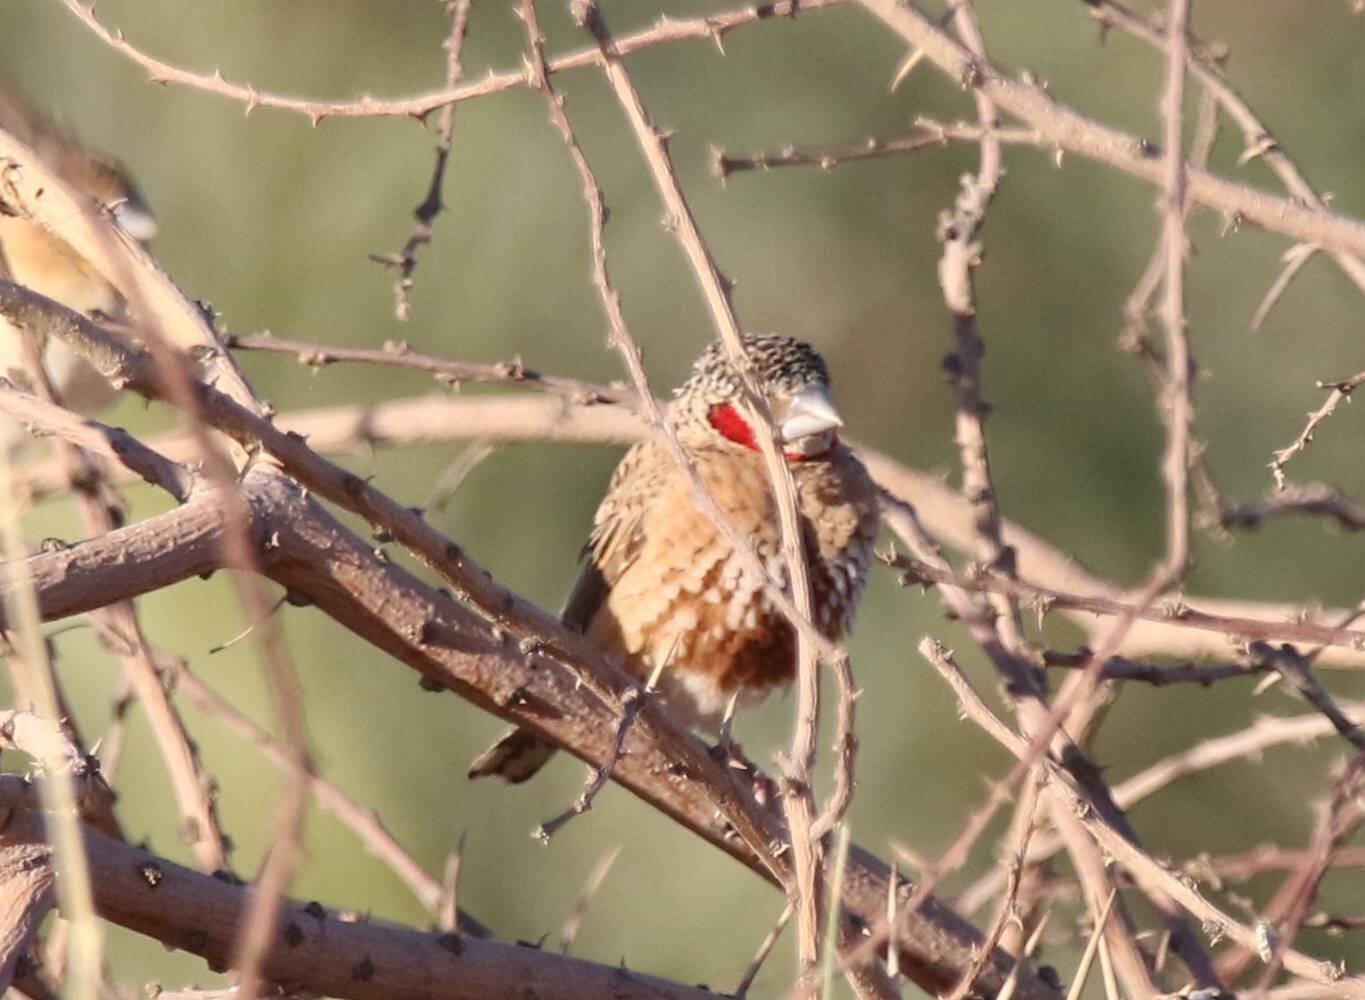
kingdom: Animalia
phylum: Chordata
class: Aves
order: Passeriformes
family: Estrildidae
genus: Amadina
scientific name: Amadina fasciata
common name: Cut-throat finch
